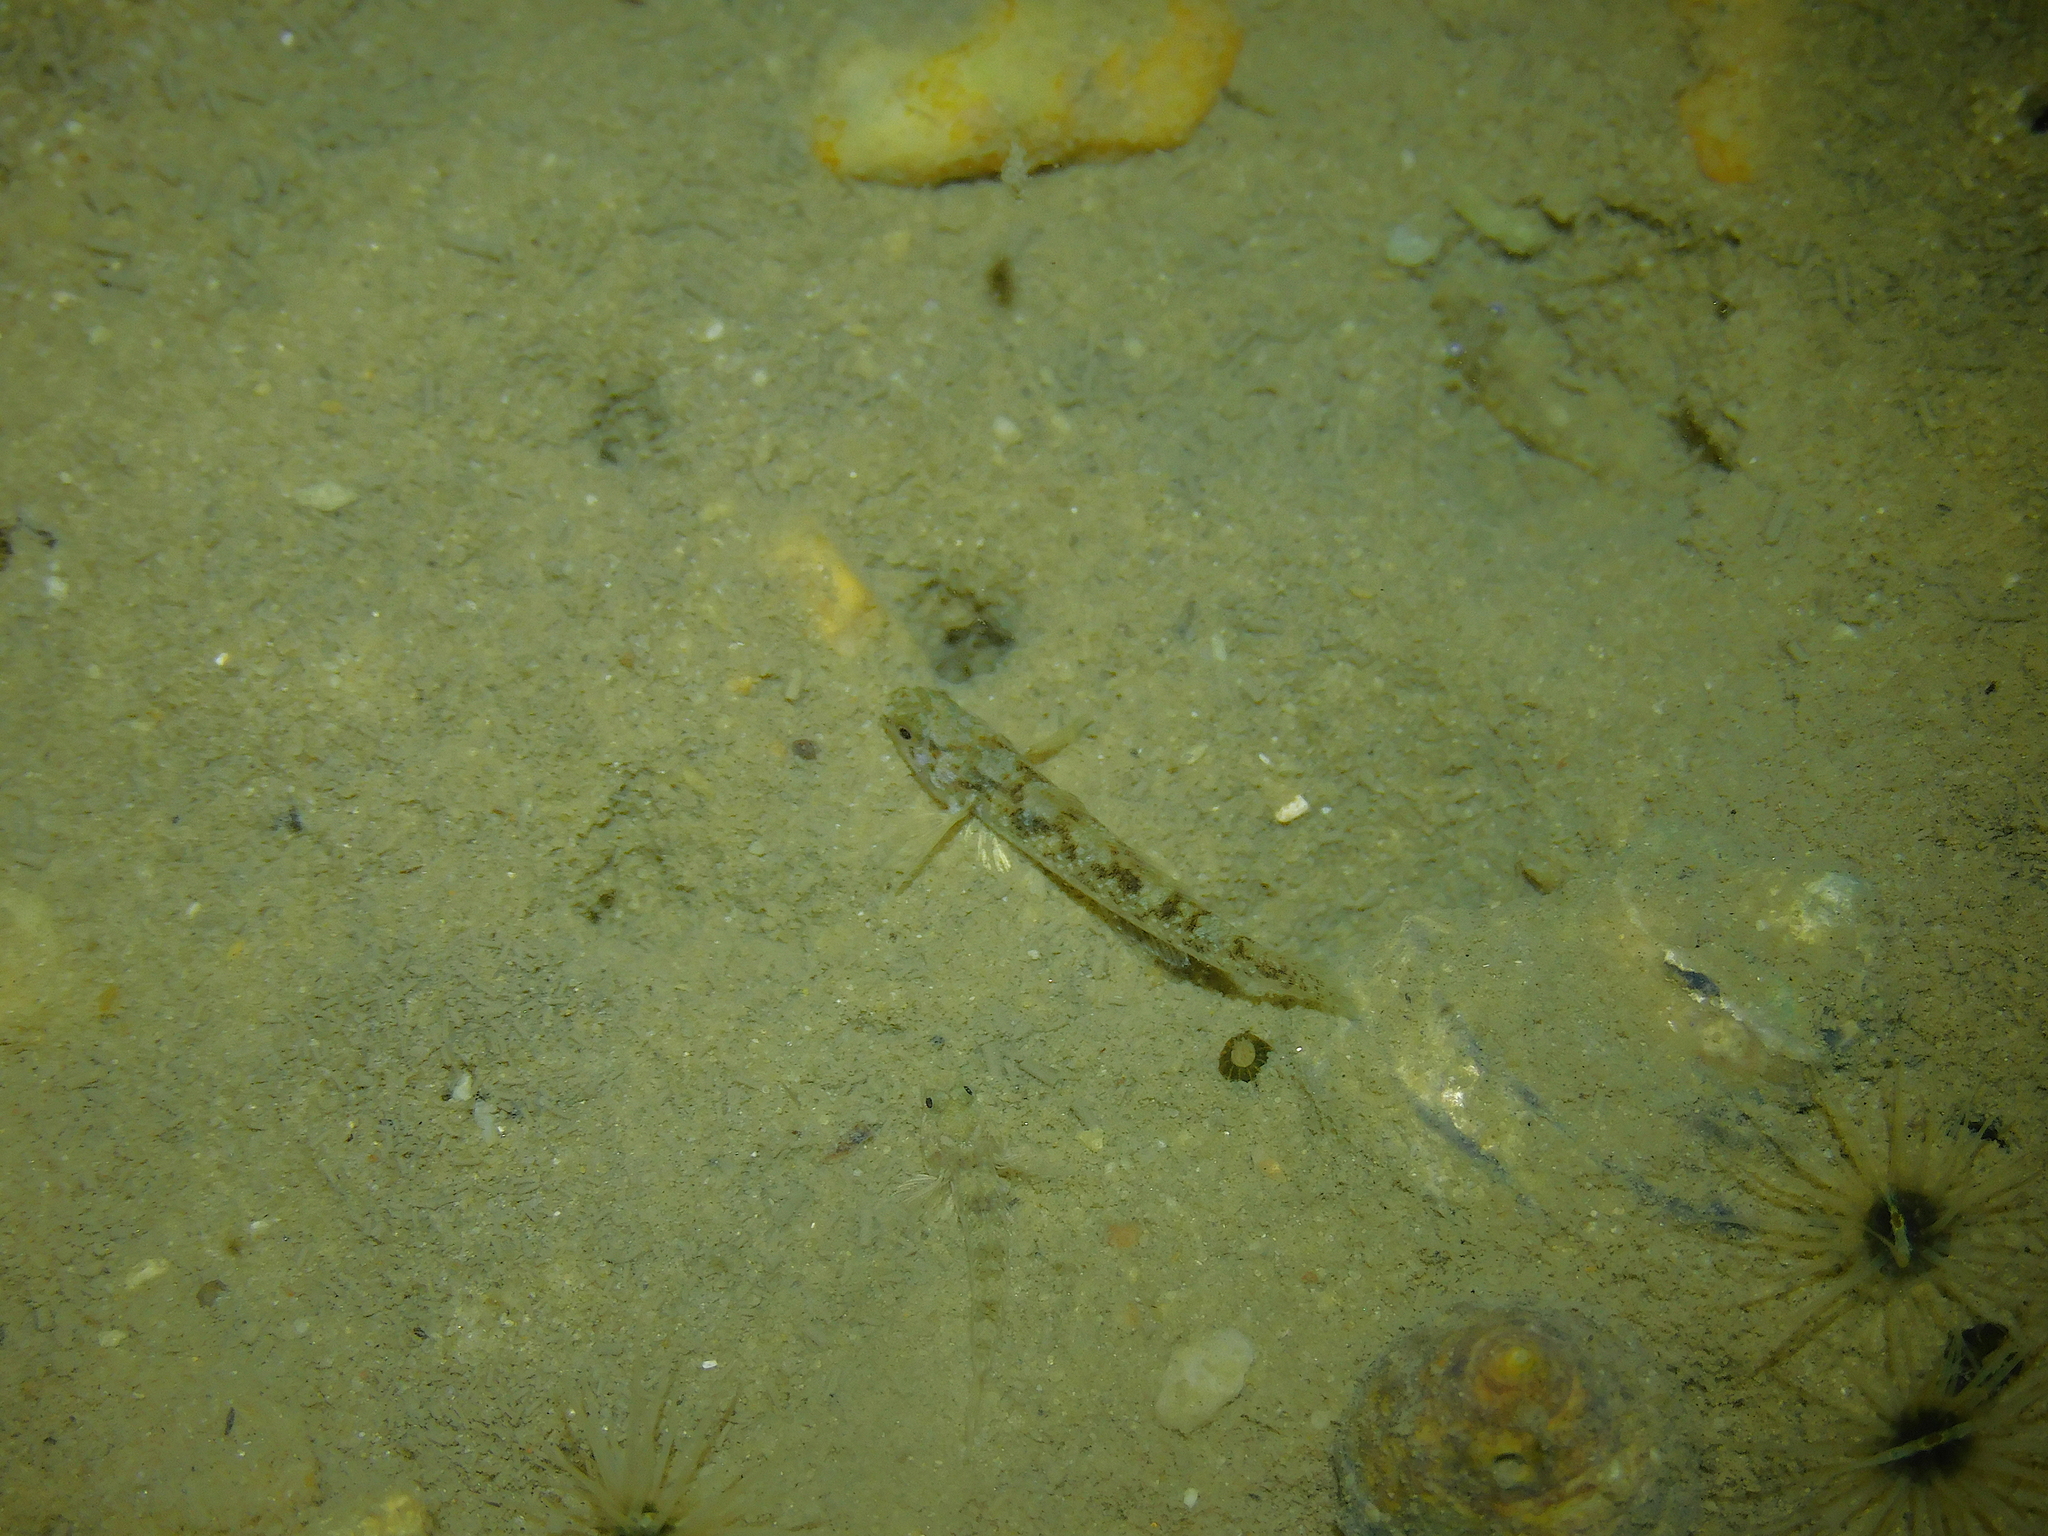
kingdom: Animalia
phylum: Chordata
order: Perciformes
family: Gobiidae
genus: Pseudogobius
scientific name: Pseudogobius olorum
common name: Blue-spot goby
